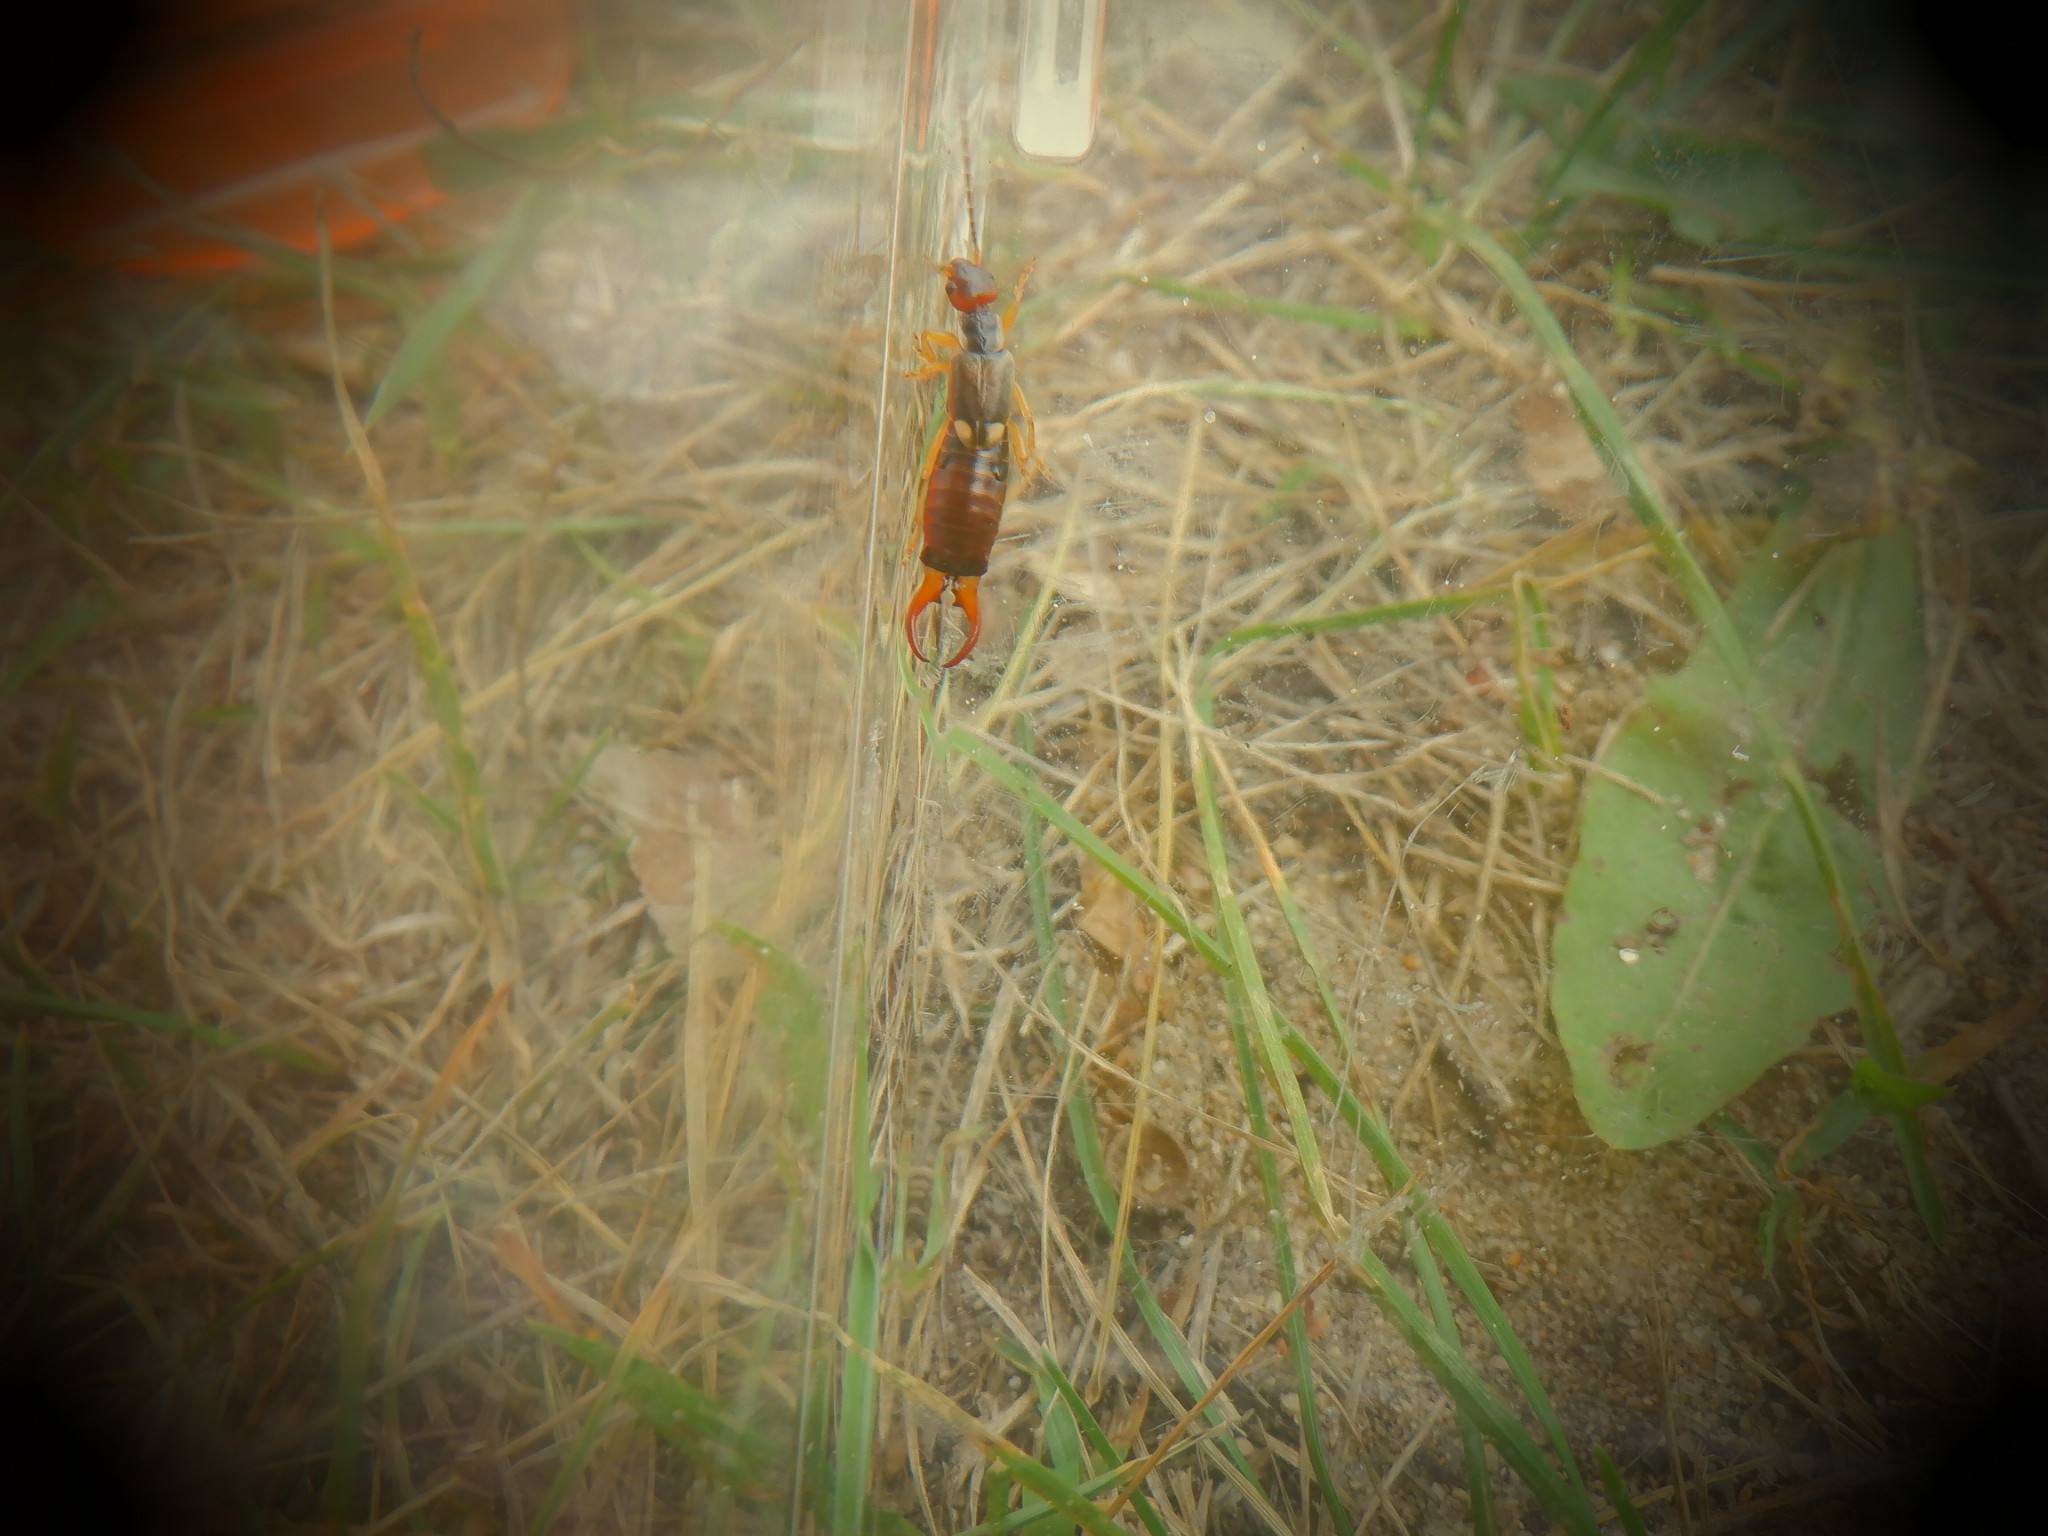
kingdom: Animalia
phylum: Arthropoda
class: Insecta
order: Dermaptera
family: Forficulidae
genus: Forficula
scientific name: Forficula
